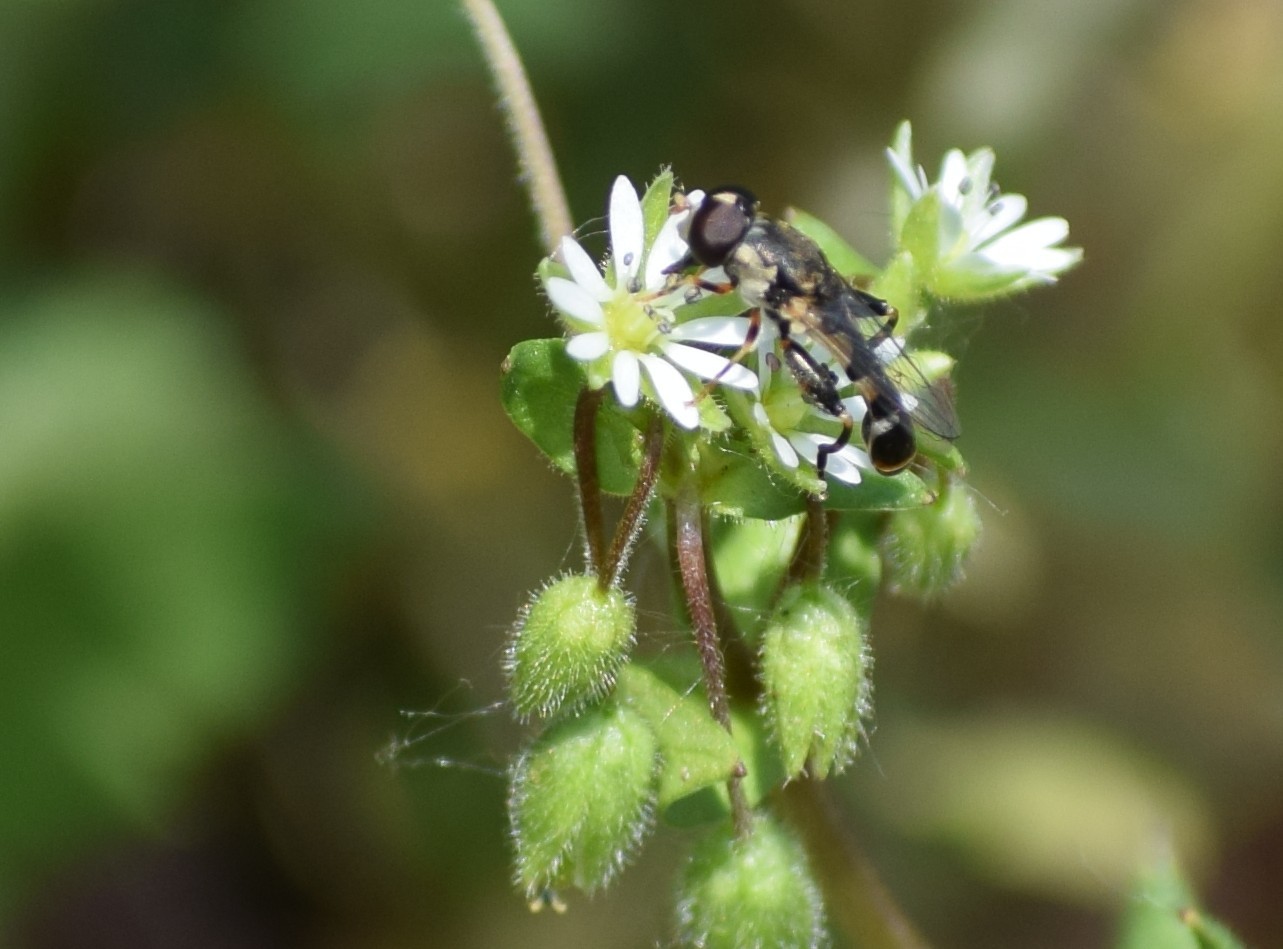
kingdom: Animalia
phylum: Arthropoda
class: Insecta
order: Diptera
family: Syrphidae
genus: Syritta
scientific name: Syritta pipiens
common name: Hover fly
